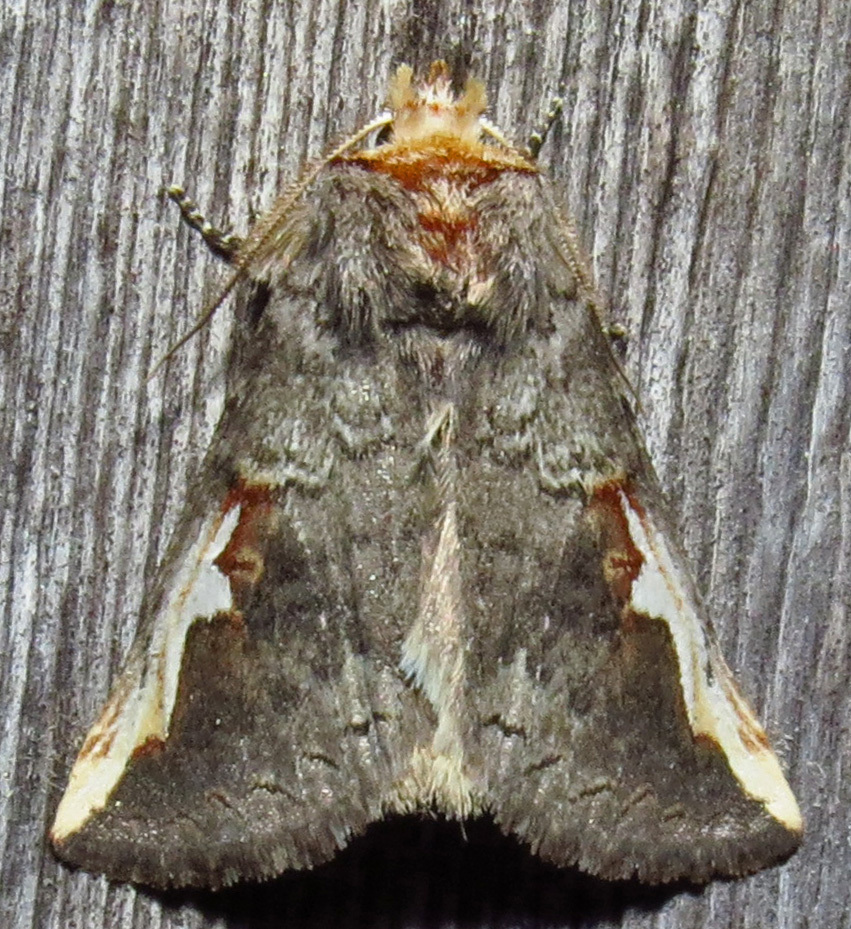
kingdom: Animalia
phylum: Arthropoda
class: Insecta
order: Lepidoptera
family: Notodontidae
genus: Symmerista
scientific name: Symmerista
